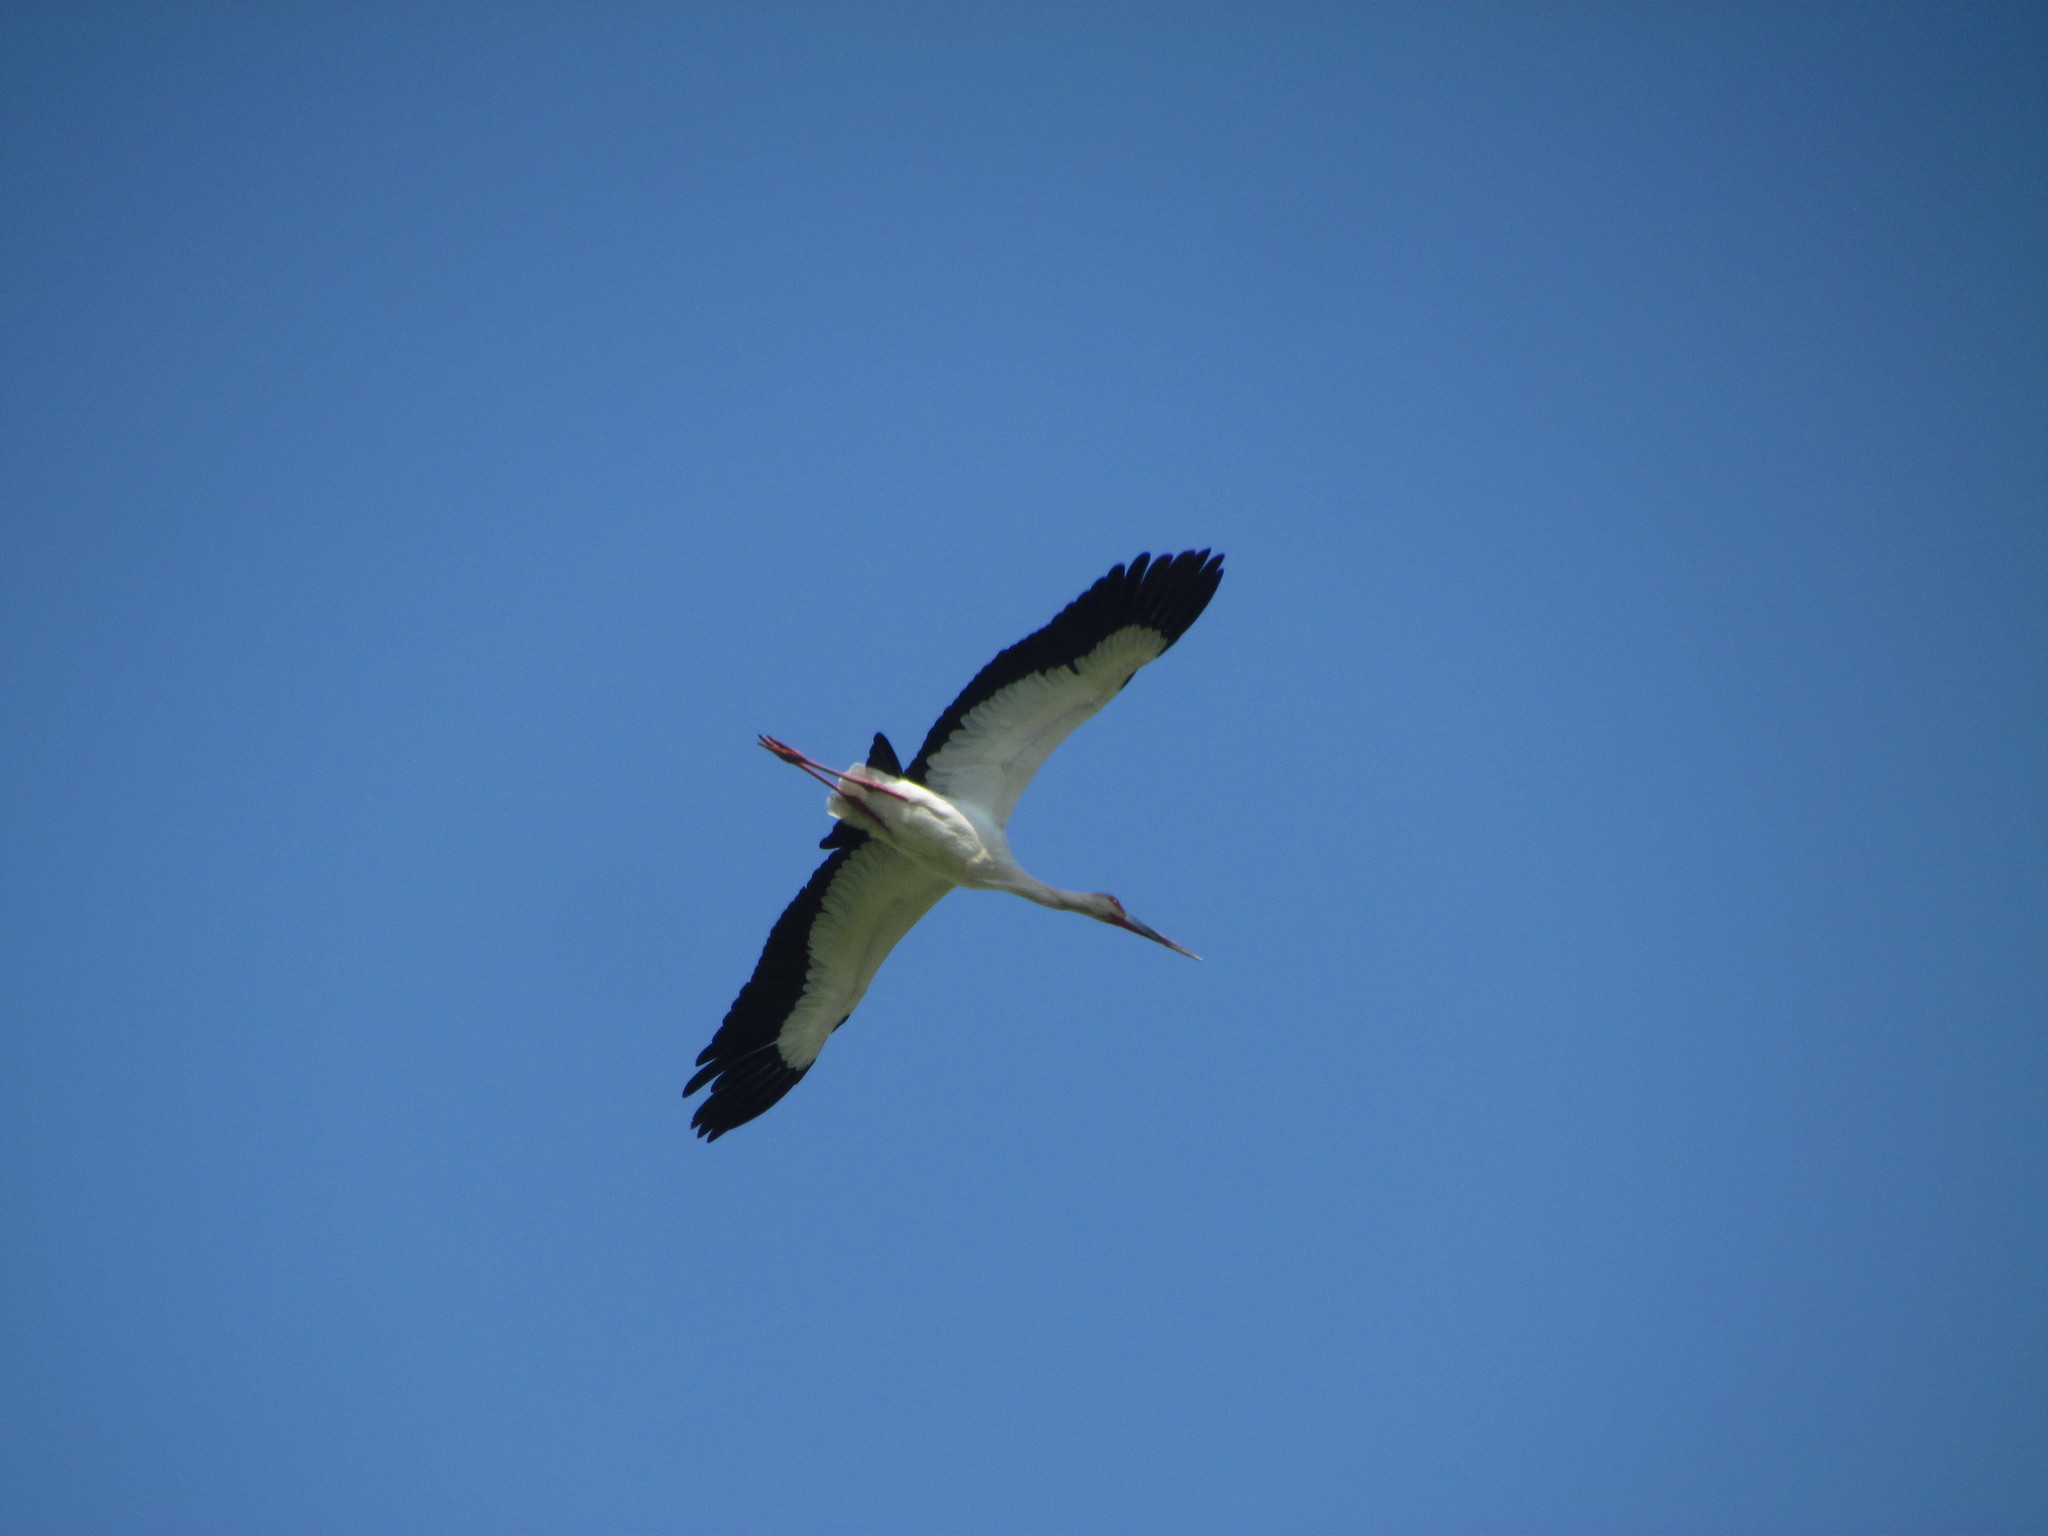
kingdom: Animalia
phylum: Chordata
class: Aves
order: Ciconiiformes
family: Ciconiidae
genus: Ciconia
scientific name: Ciconia maguari
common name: Maguari stork
